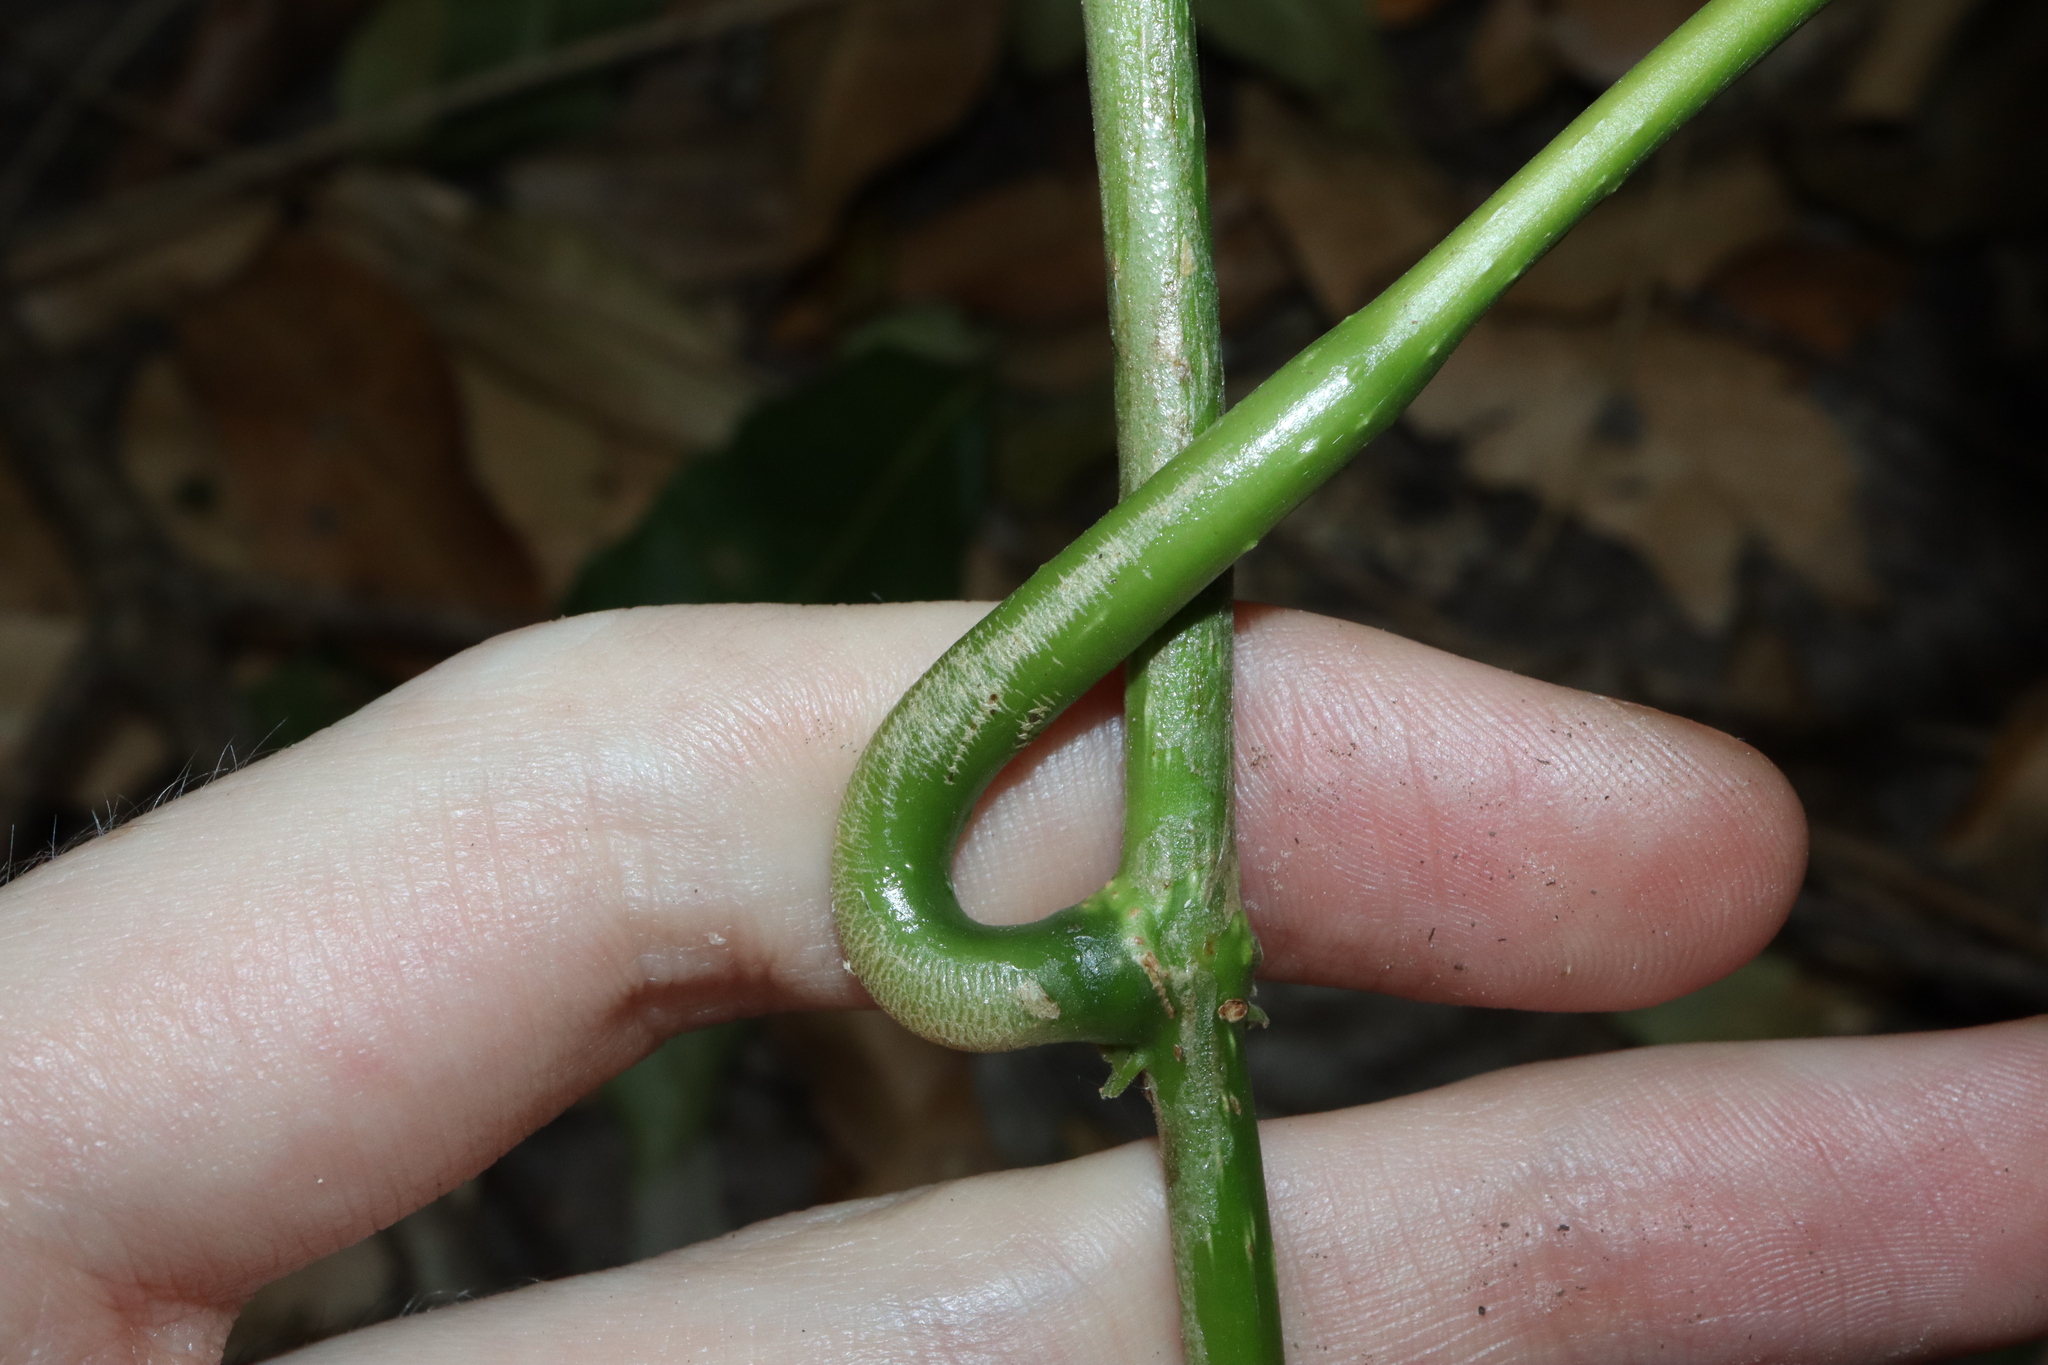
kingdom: Plantae
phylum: Tracheophyta
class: Magnoliopsida
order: Lamiales
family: Lamiaceae
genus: Oxera
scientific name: Oxera splendida
